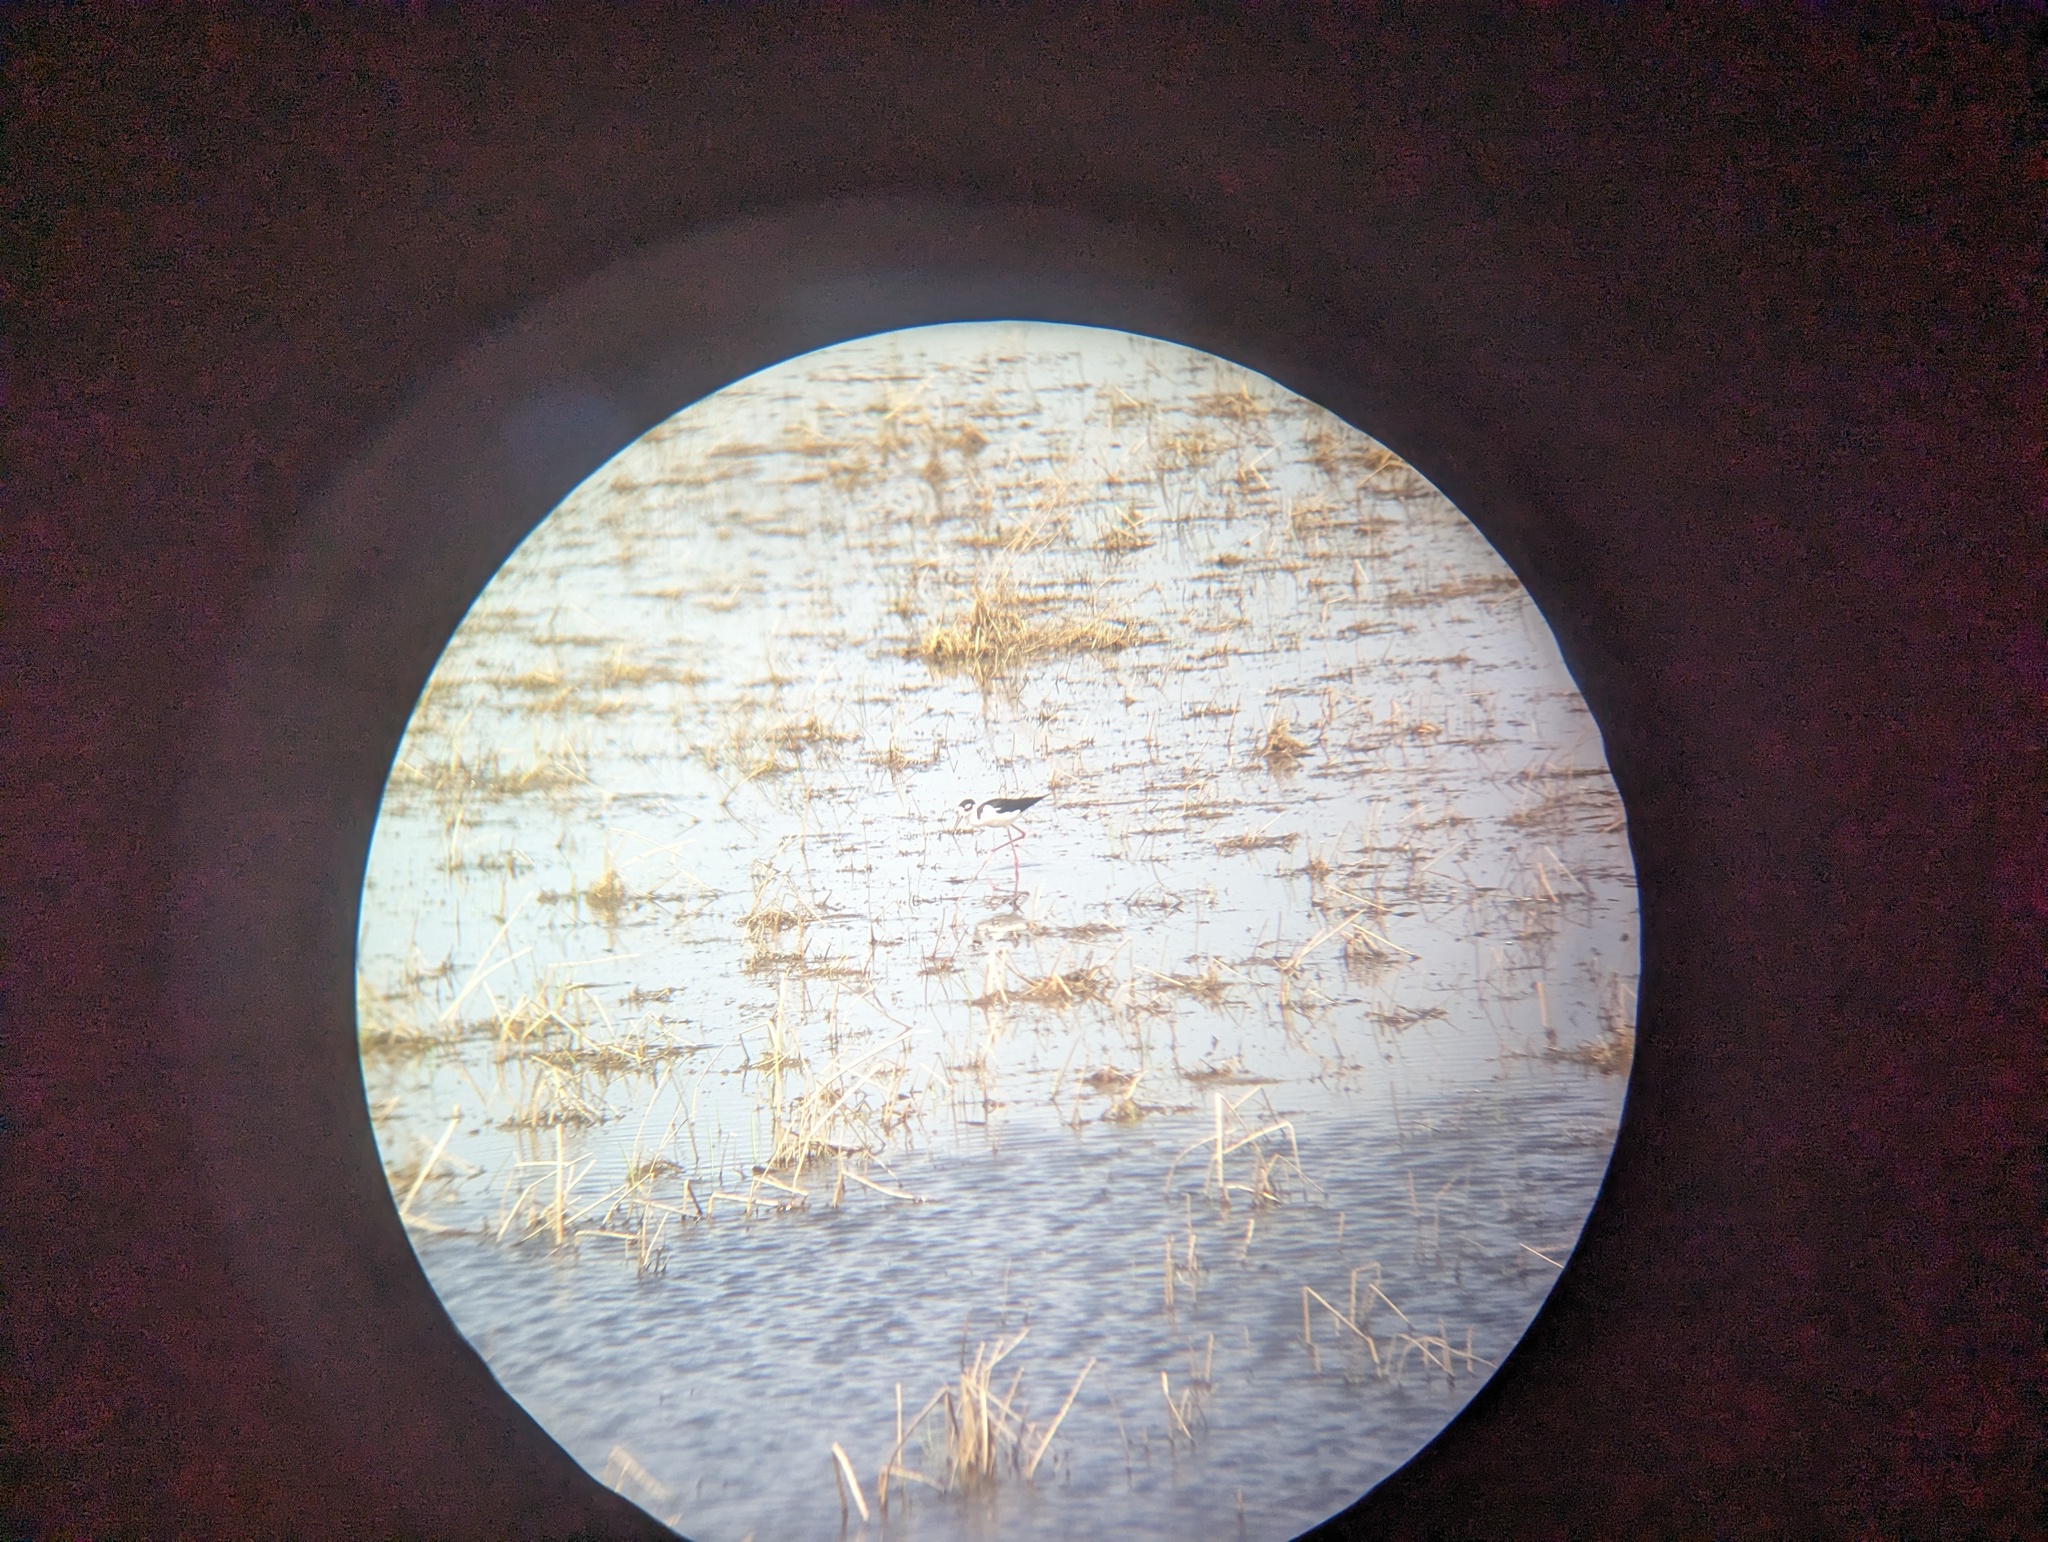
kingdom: Animalia
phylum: Chordata
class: Aves
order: Charadriiformes
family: Recurvirostridae
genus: Himantopus
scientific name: Himantopus mexicanus
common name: Black-necked stilt
